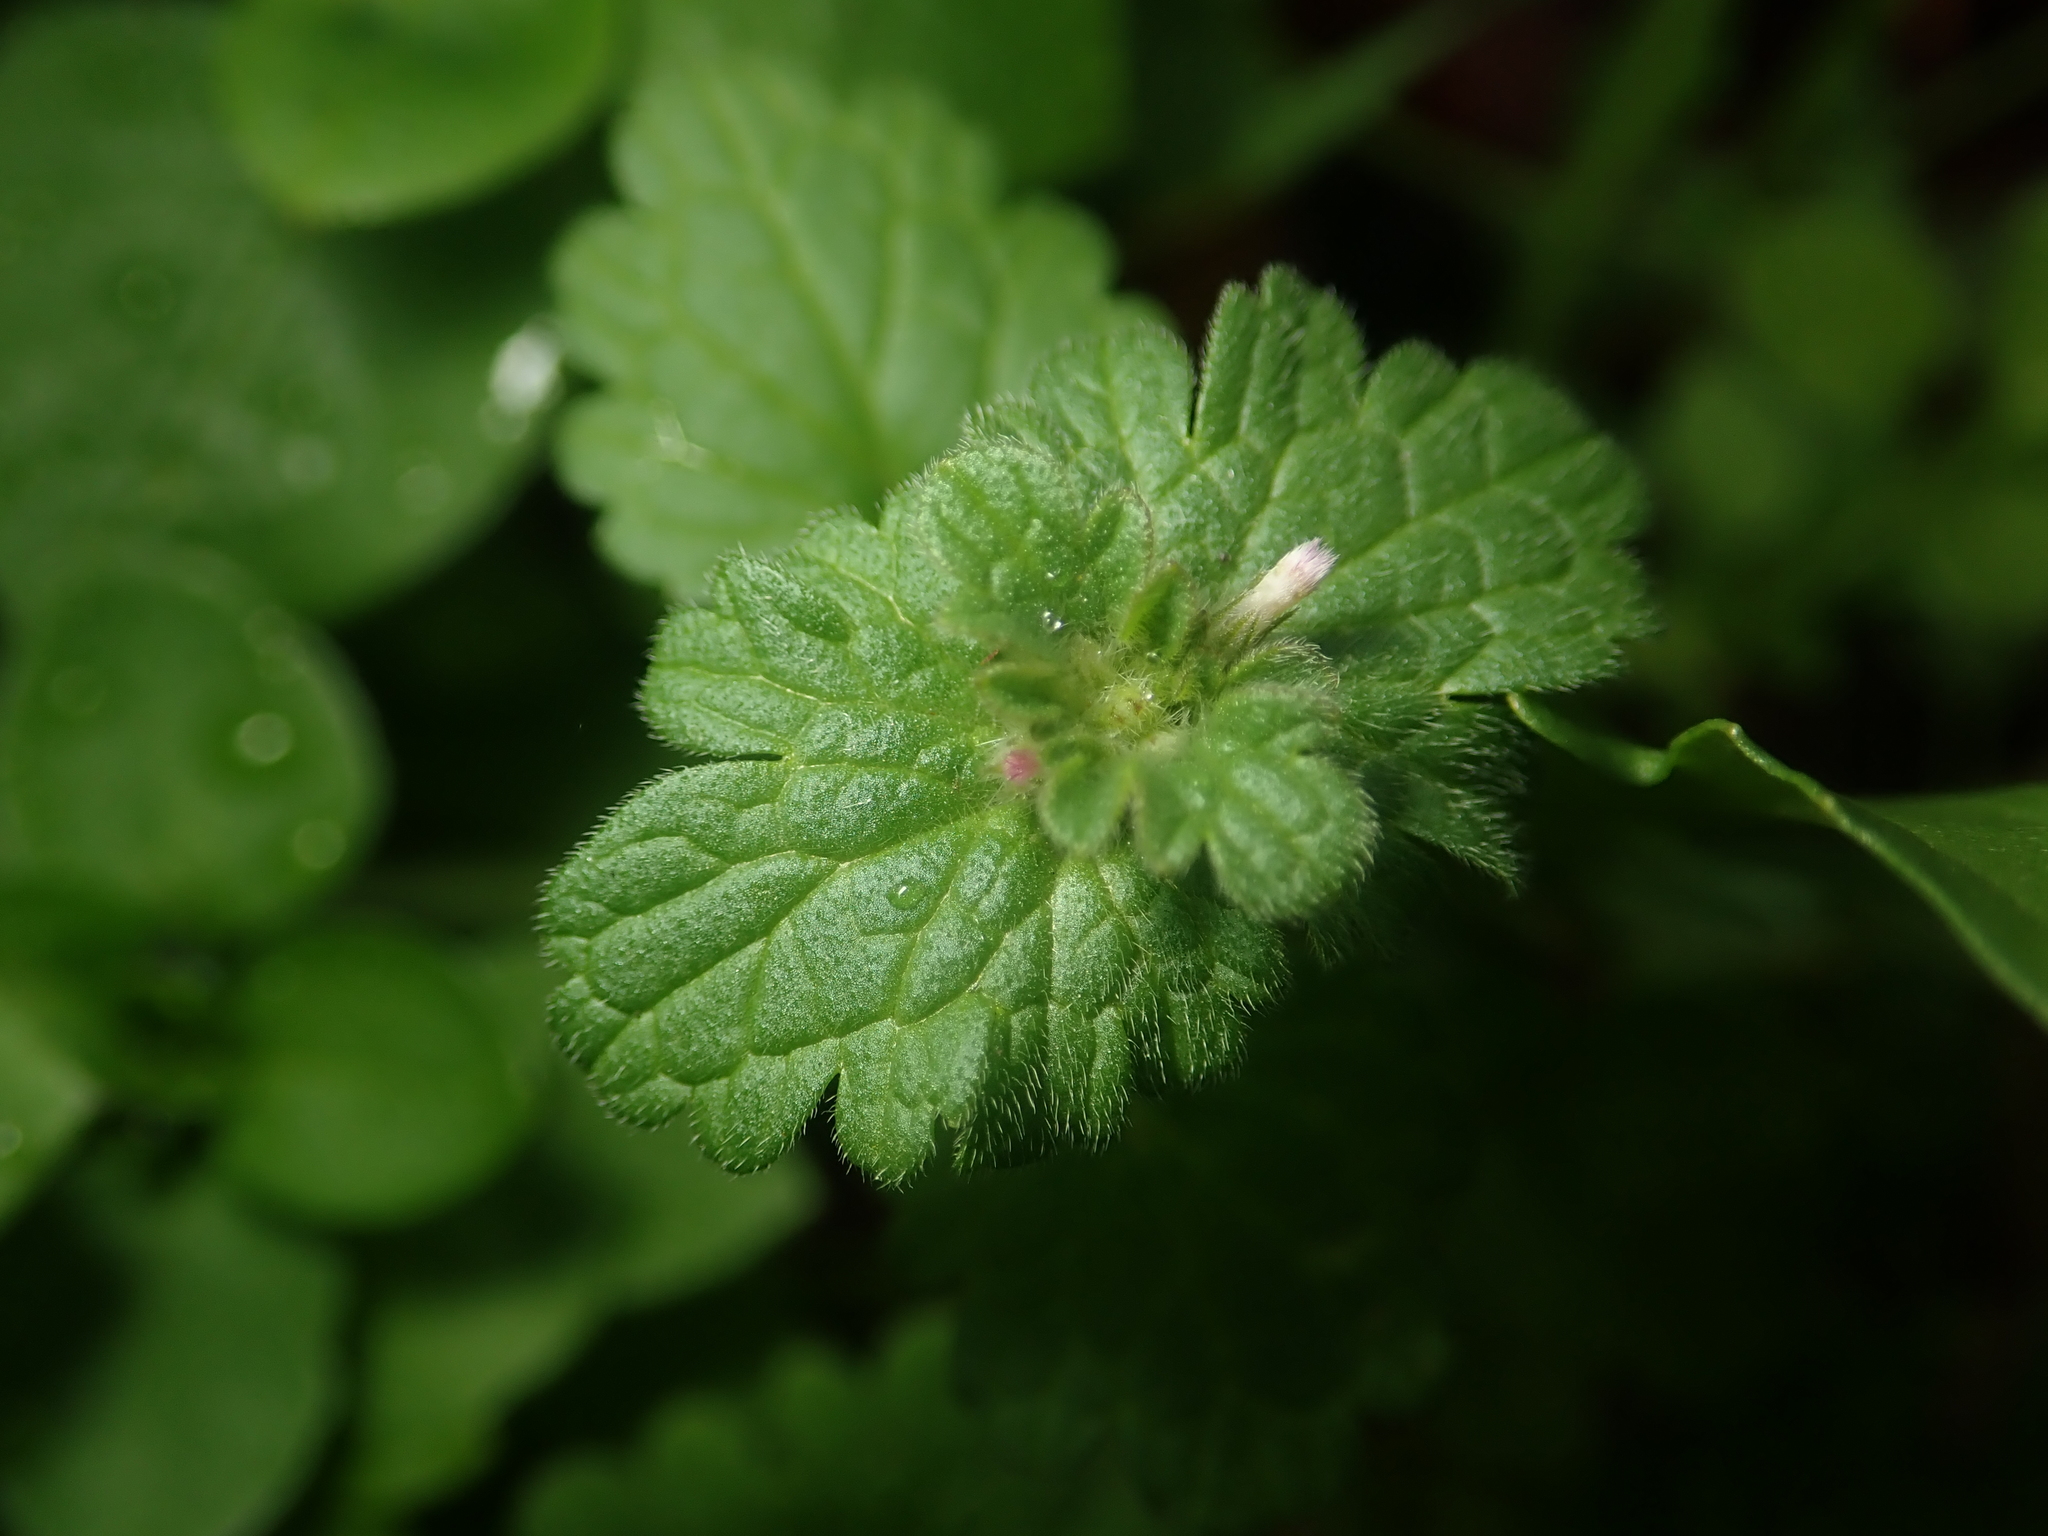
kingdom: Plantae
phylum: Tracheophyta
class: Magnoliopsida
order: Lamiales
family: Lamiaceae
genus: Lamium
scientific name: Lamium amplexicaule
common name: Henbit dead-nettle
